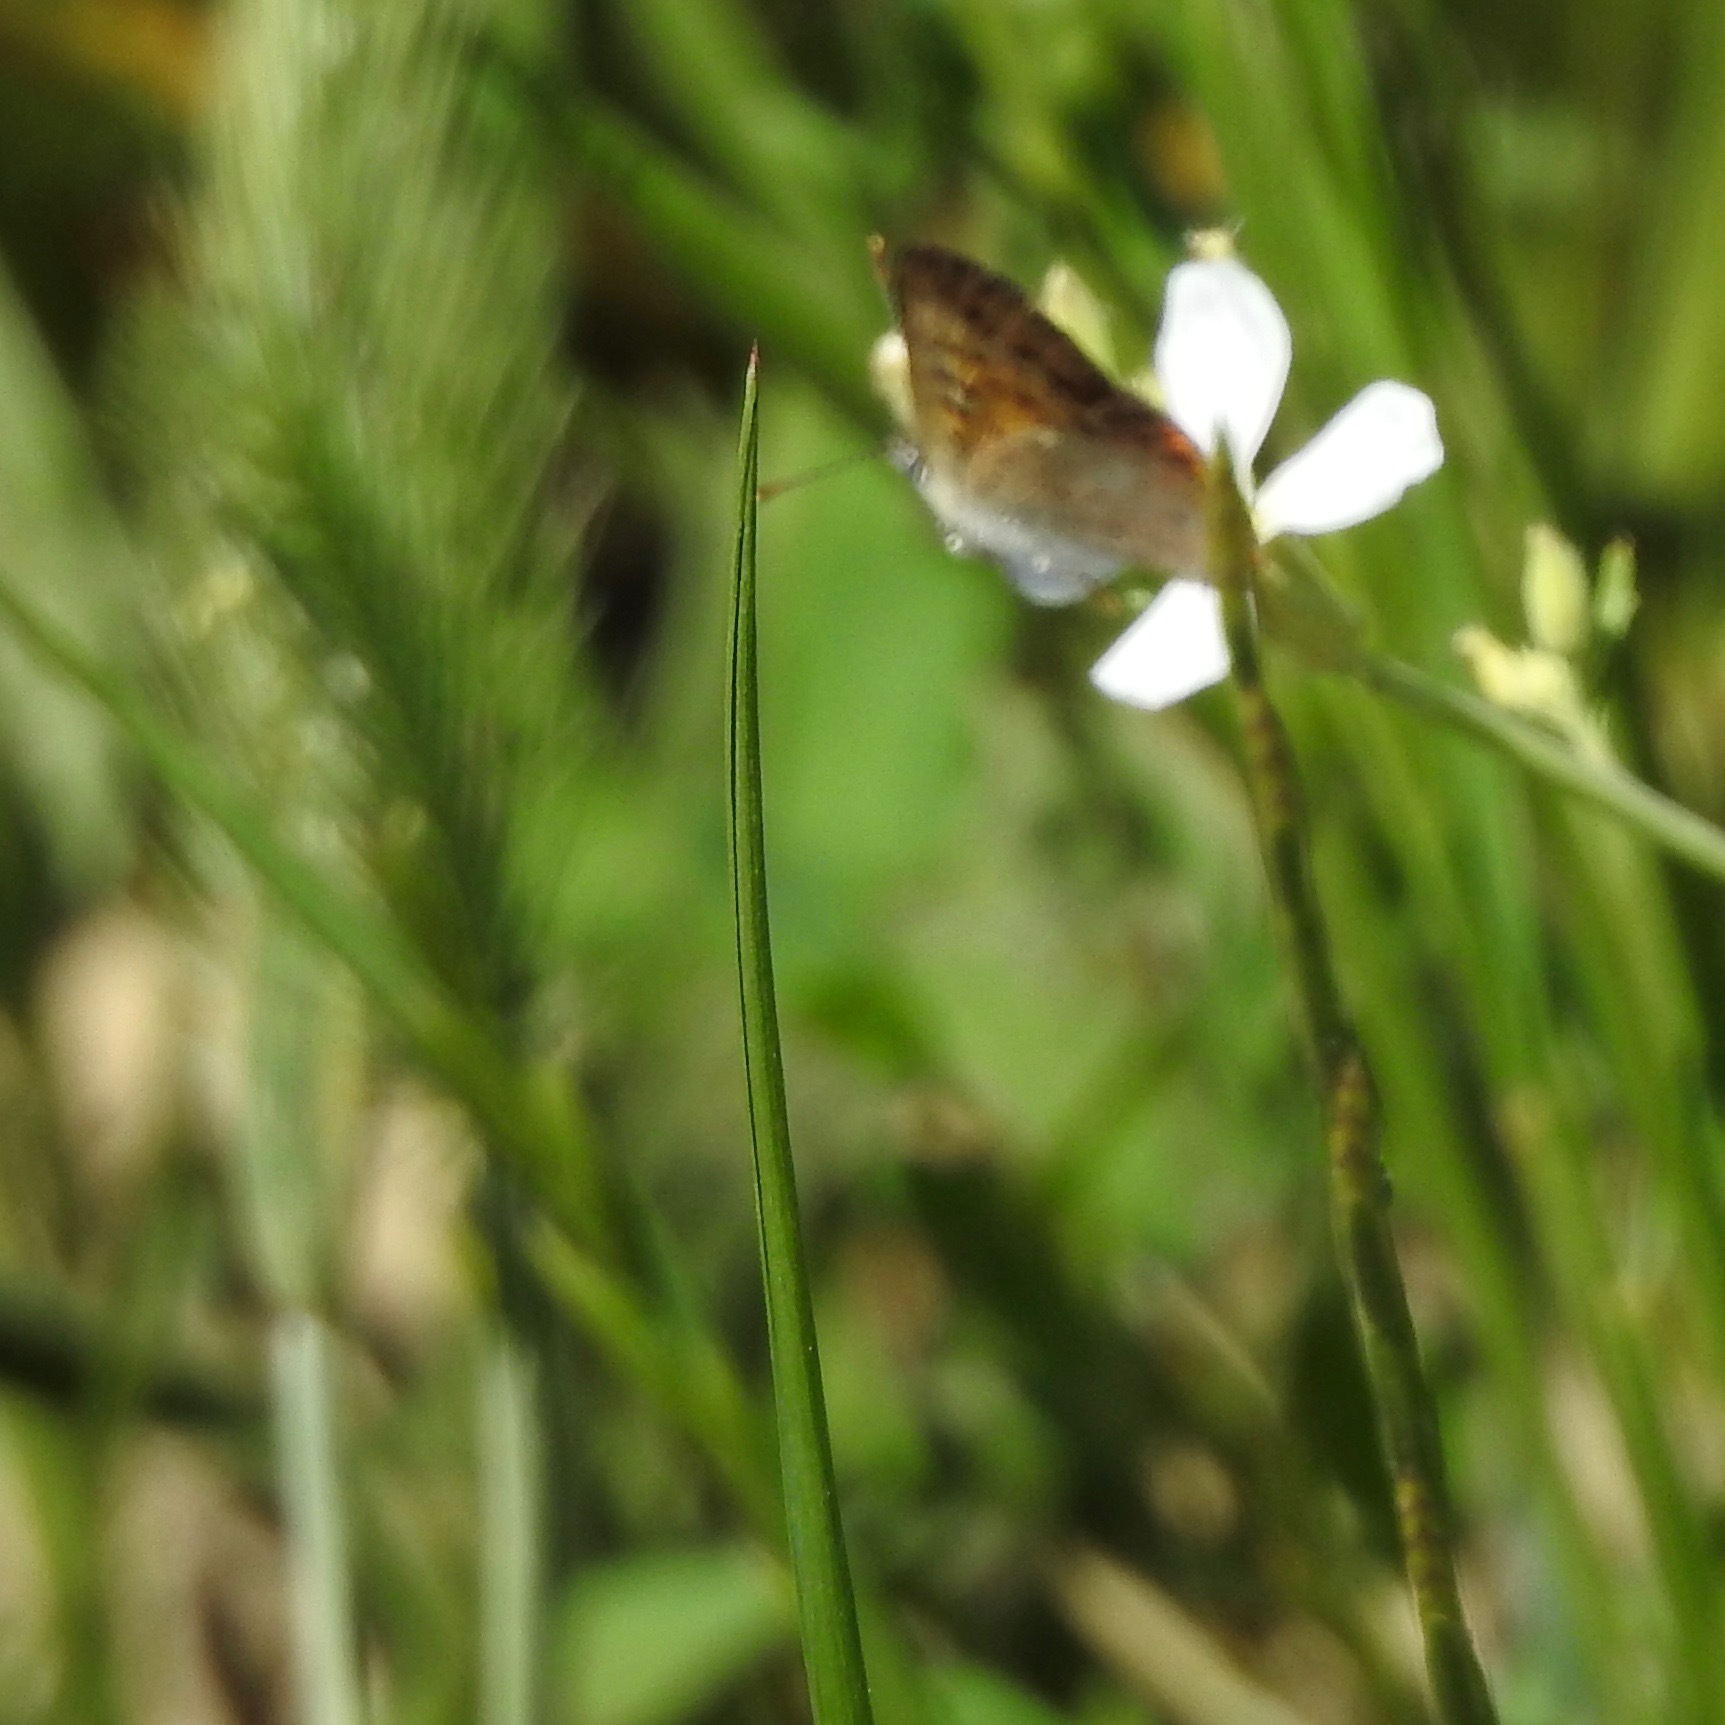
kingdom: Animalia
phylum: Arthropoda
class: Insecta
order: Lepidoptera
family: Lycaenidae
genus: Tharsalea
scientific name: Tharsalea helloides
